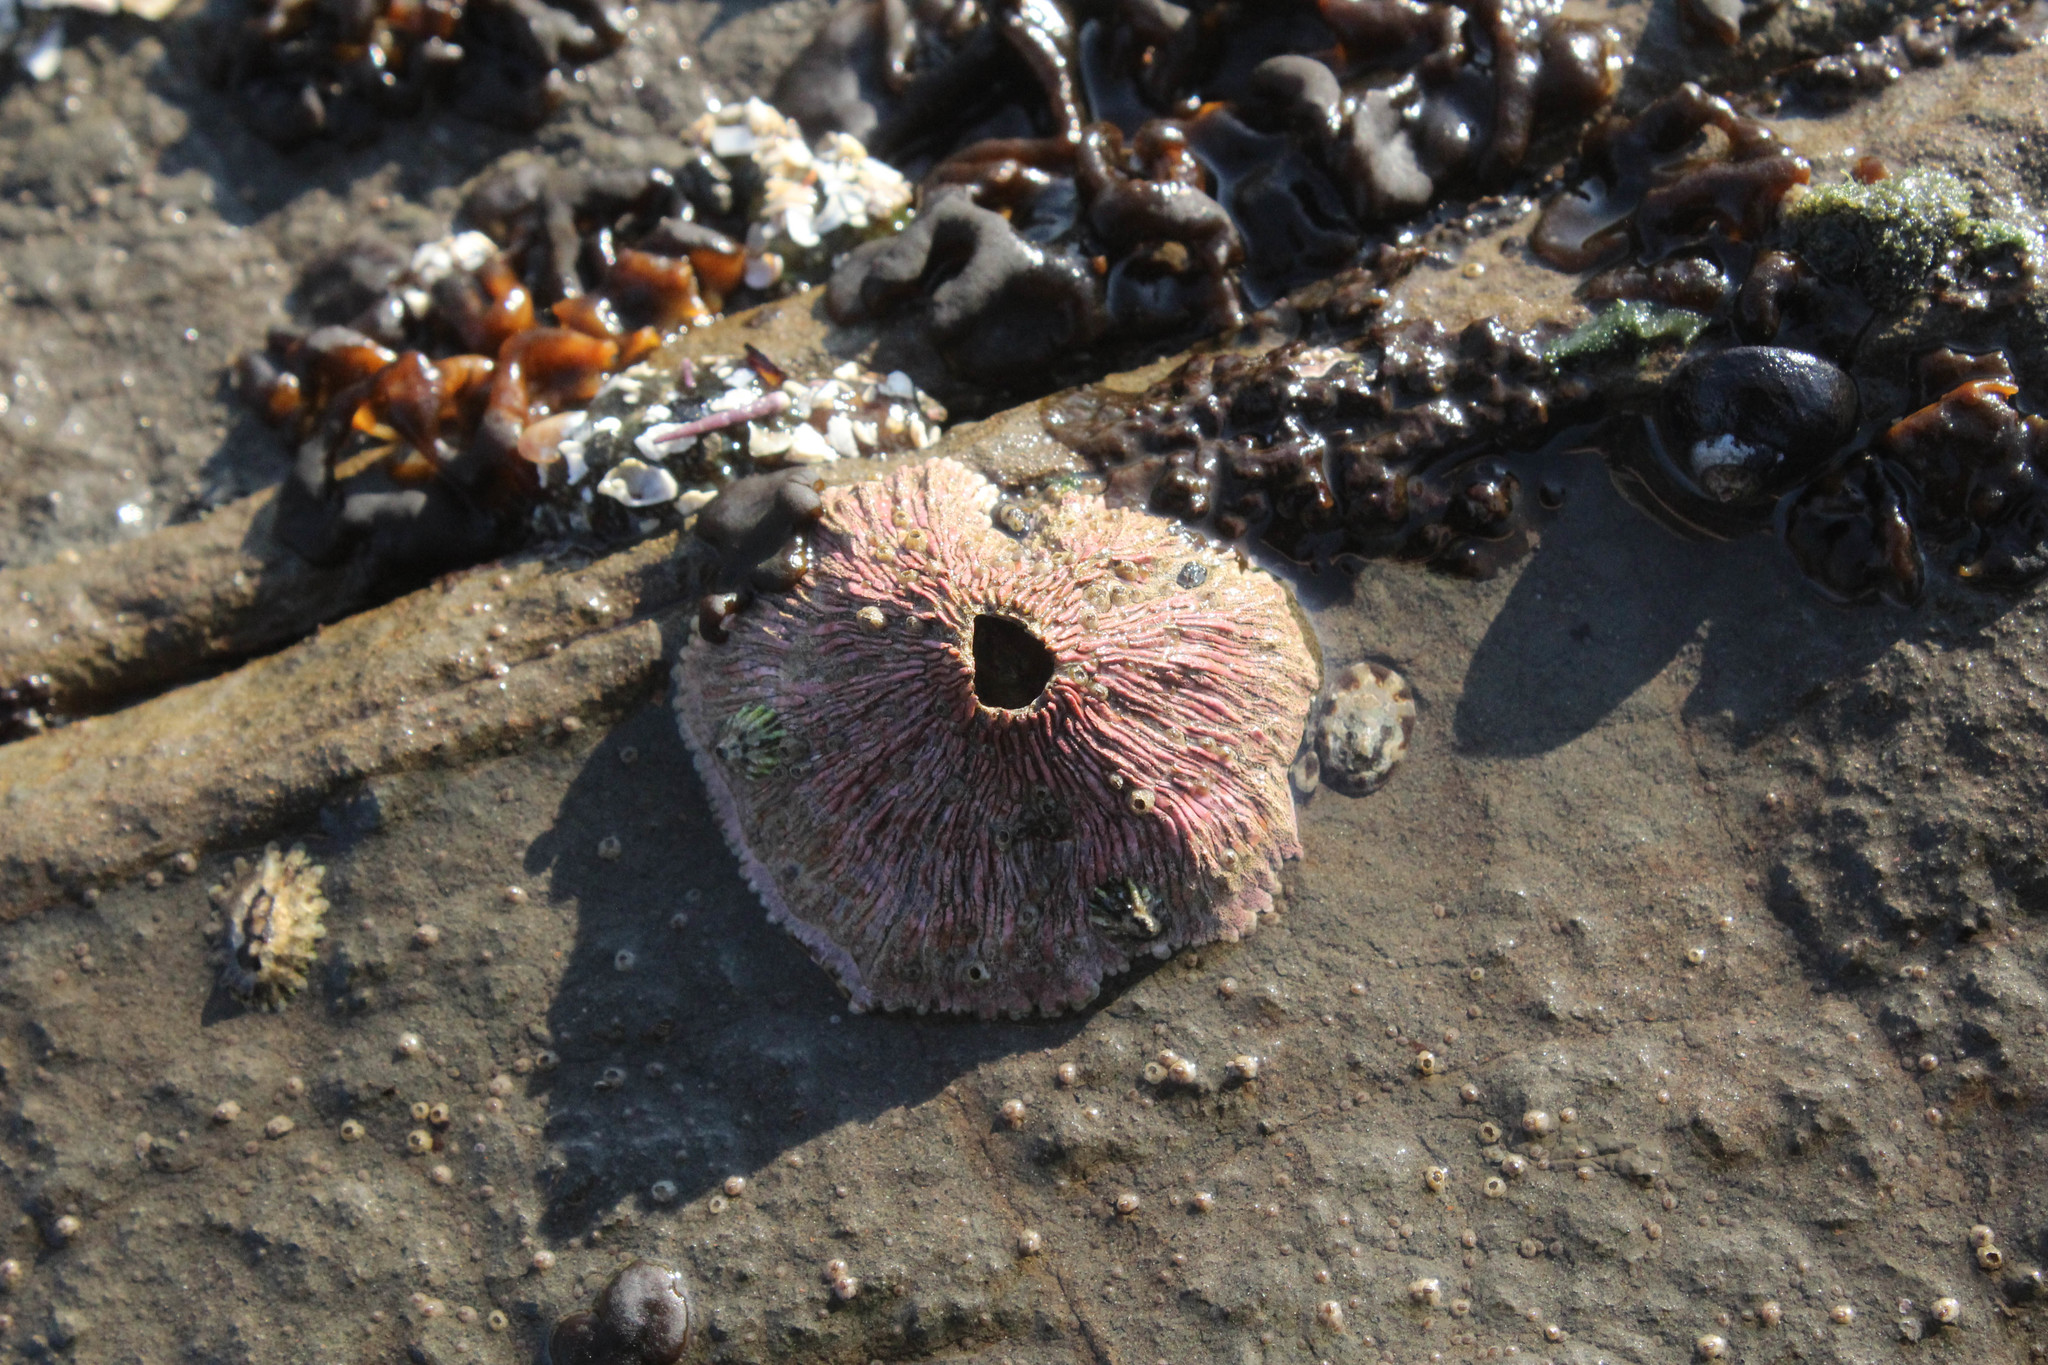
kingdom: Animalia
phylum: Arthropoda
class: Maxillopoda
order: Sessilia
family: Tetraclitidae
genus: Tetraclita
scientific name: Tetraclita rubescens
